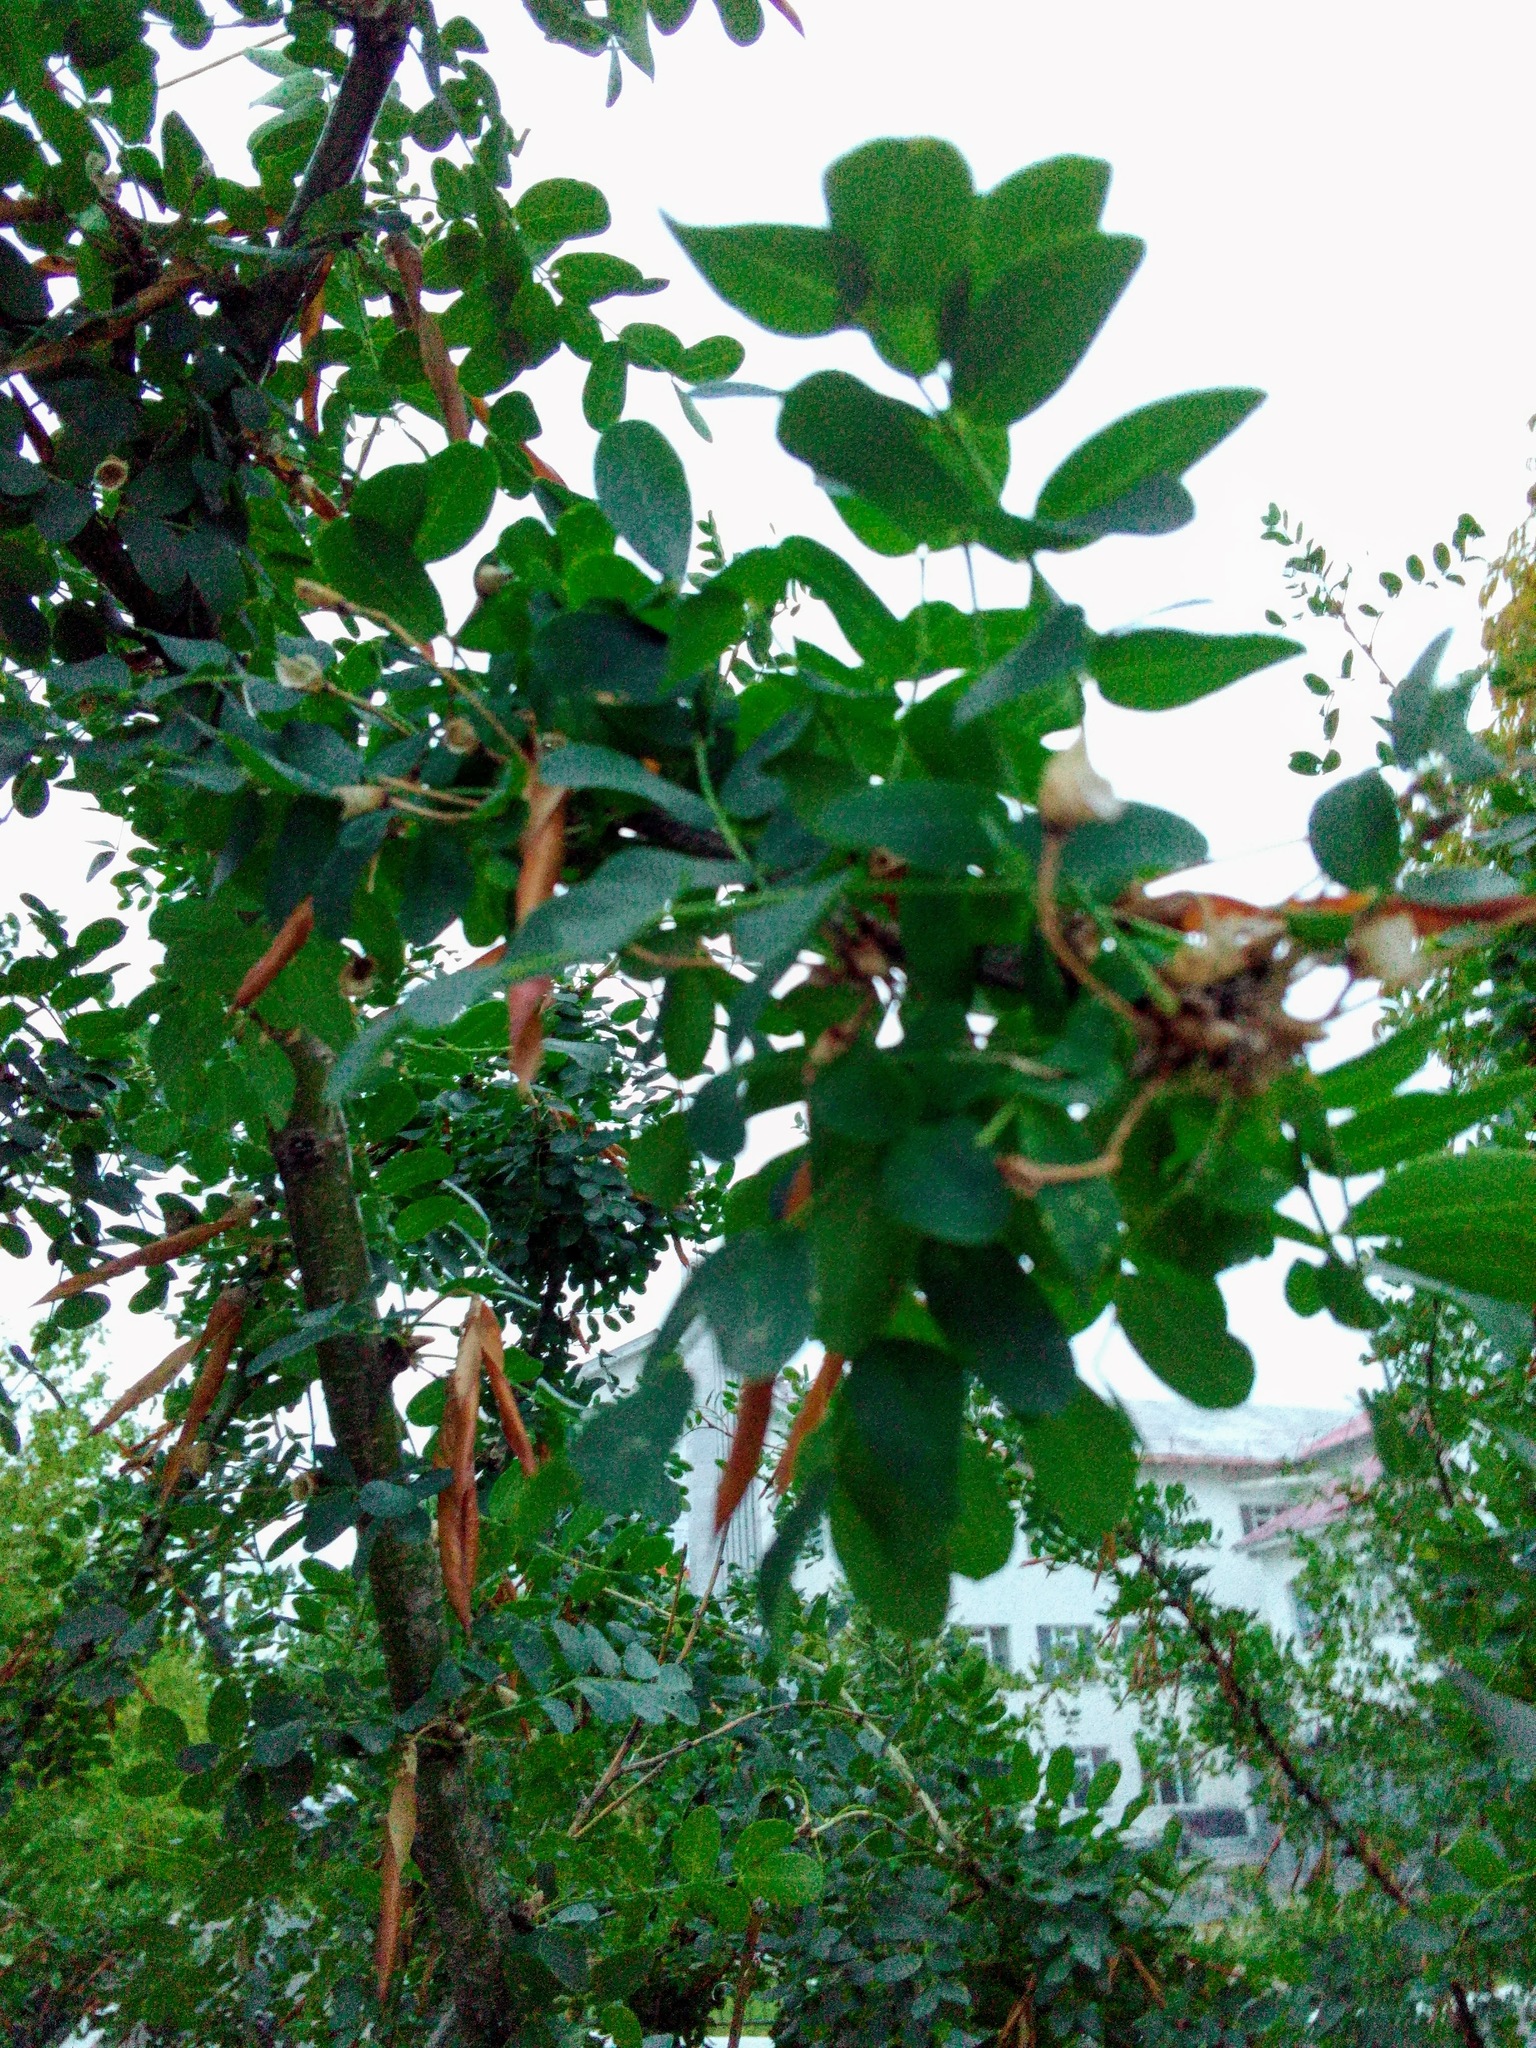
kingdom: Plantae
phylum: Tracheophyta
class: Magnoliopsida
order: Fabales
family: Fabaceae
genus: Caragana
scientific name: Caragana arborescens
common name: Siberian peashrub
